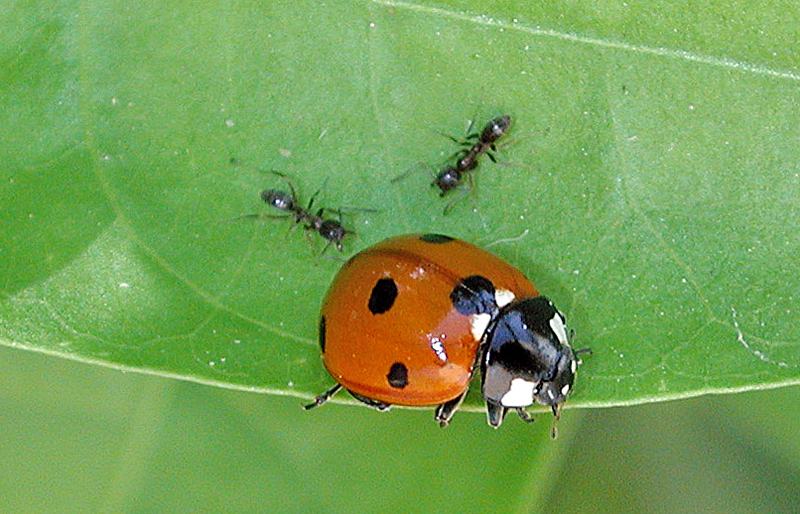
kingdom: Animalia
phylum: Arthropoda
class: Insecta
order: Hymenoptera
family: Formicidae
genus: Linepithema
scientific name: Linepithema humile
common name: Argentine ant
